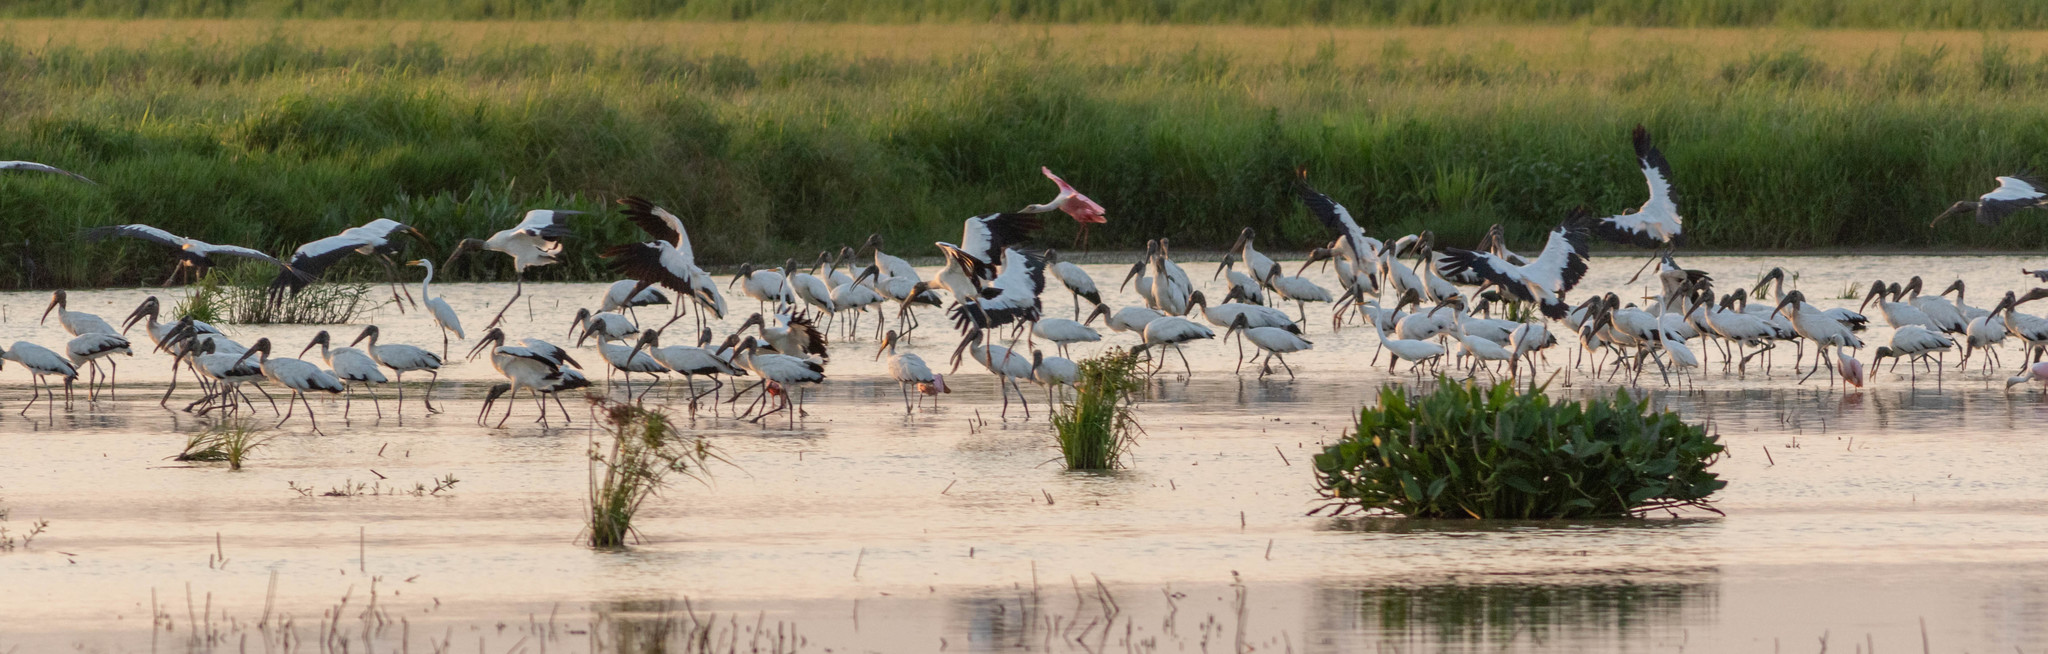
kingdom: Animalia
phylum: Chordata
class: Aves
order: Ciconiiformes
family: Ciconiidae
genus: Mycteria
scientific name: Mycteria americana
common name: Wood stork
